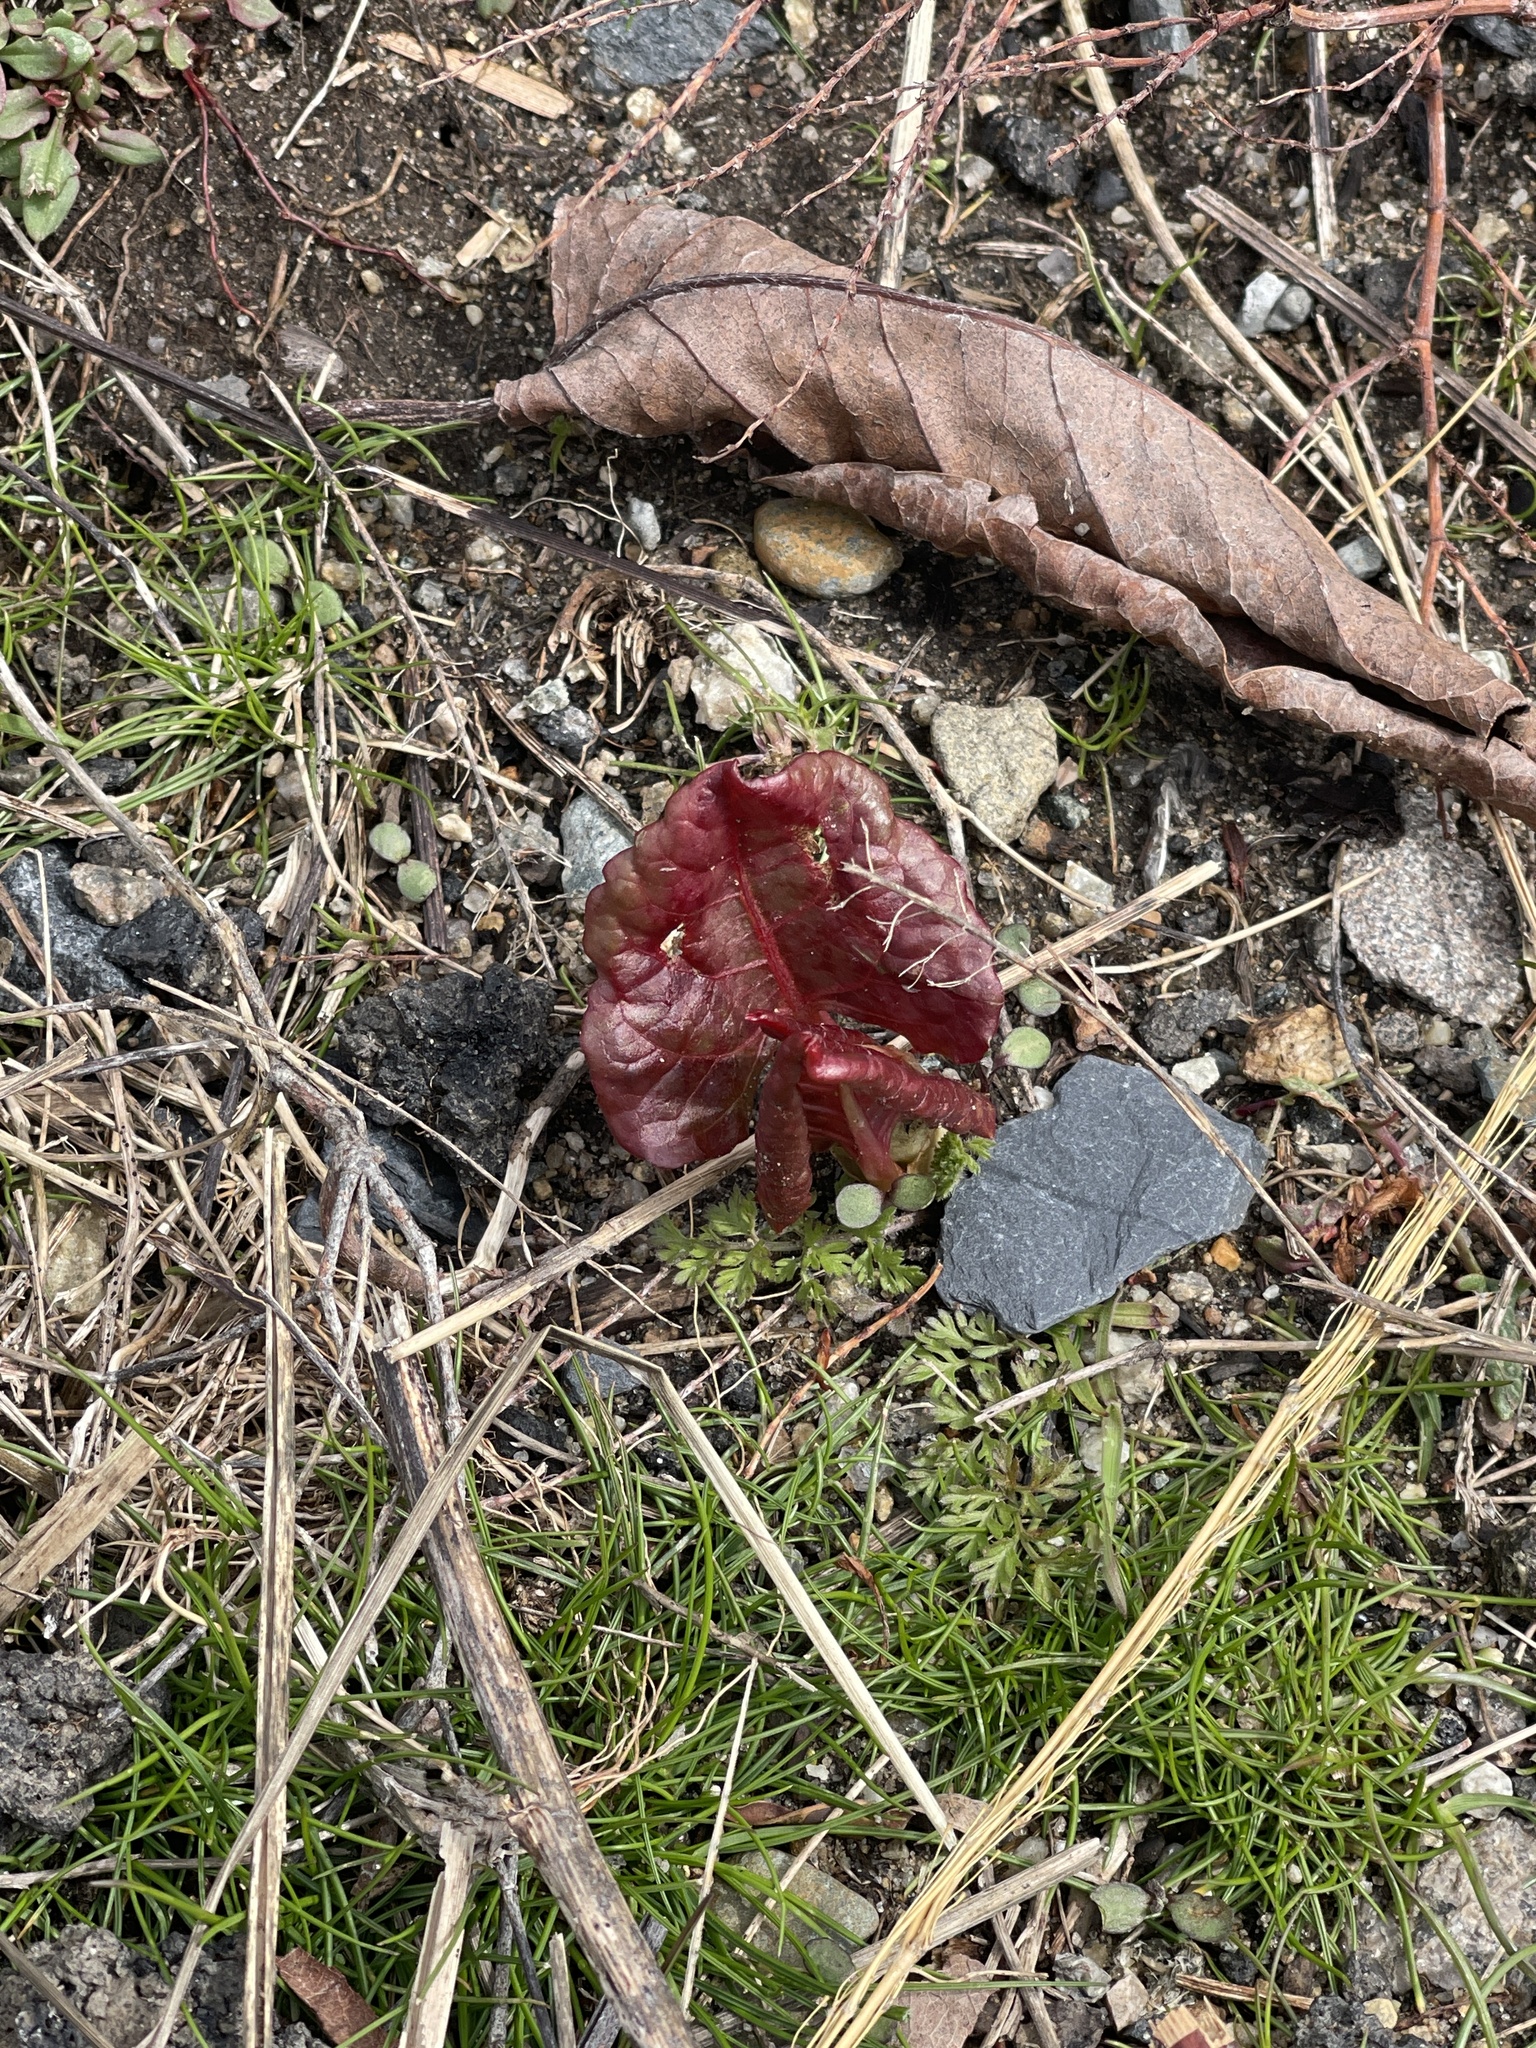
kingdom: Plantae
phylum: Tracheophyta
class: Magnoliopsida
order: Caryophyllales
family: Polygonaceae
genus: Reynoutria
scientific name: Reynoutria japonica
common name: Japanese knotweed
